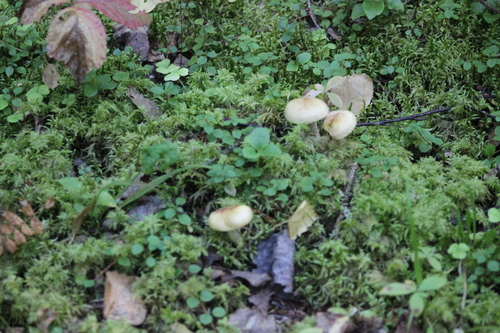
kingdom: Fungi
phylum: Basidiomycota
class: Agaricomycetes
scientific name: Agaricomycetes
